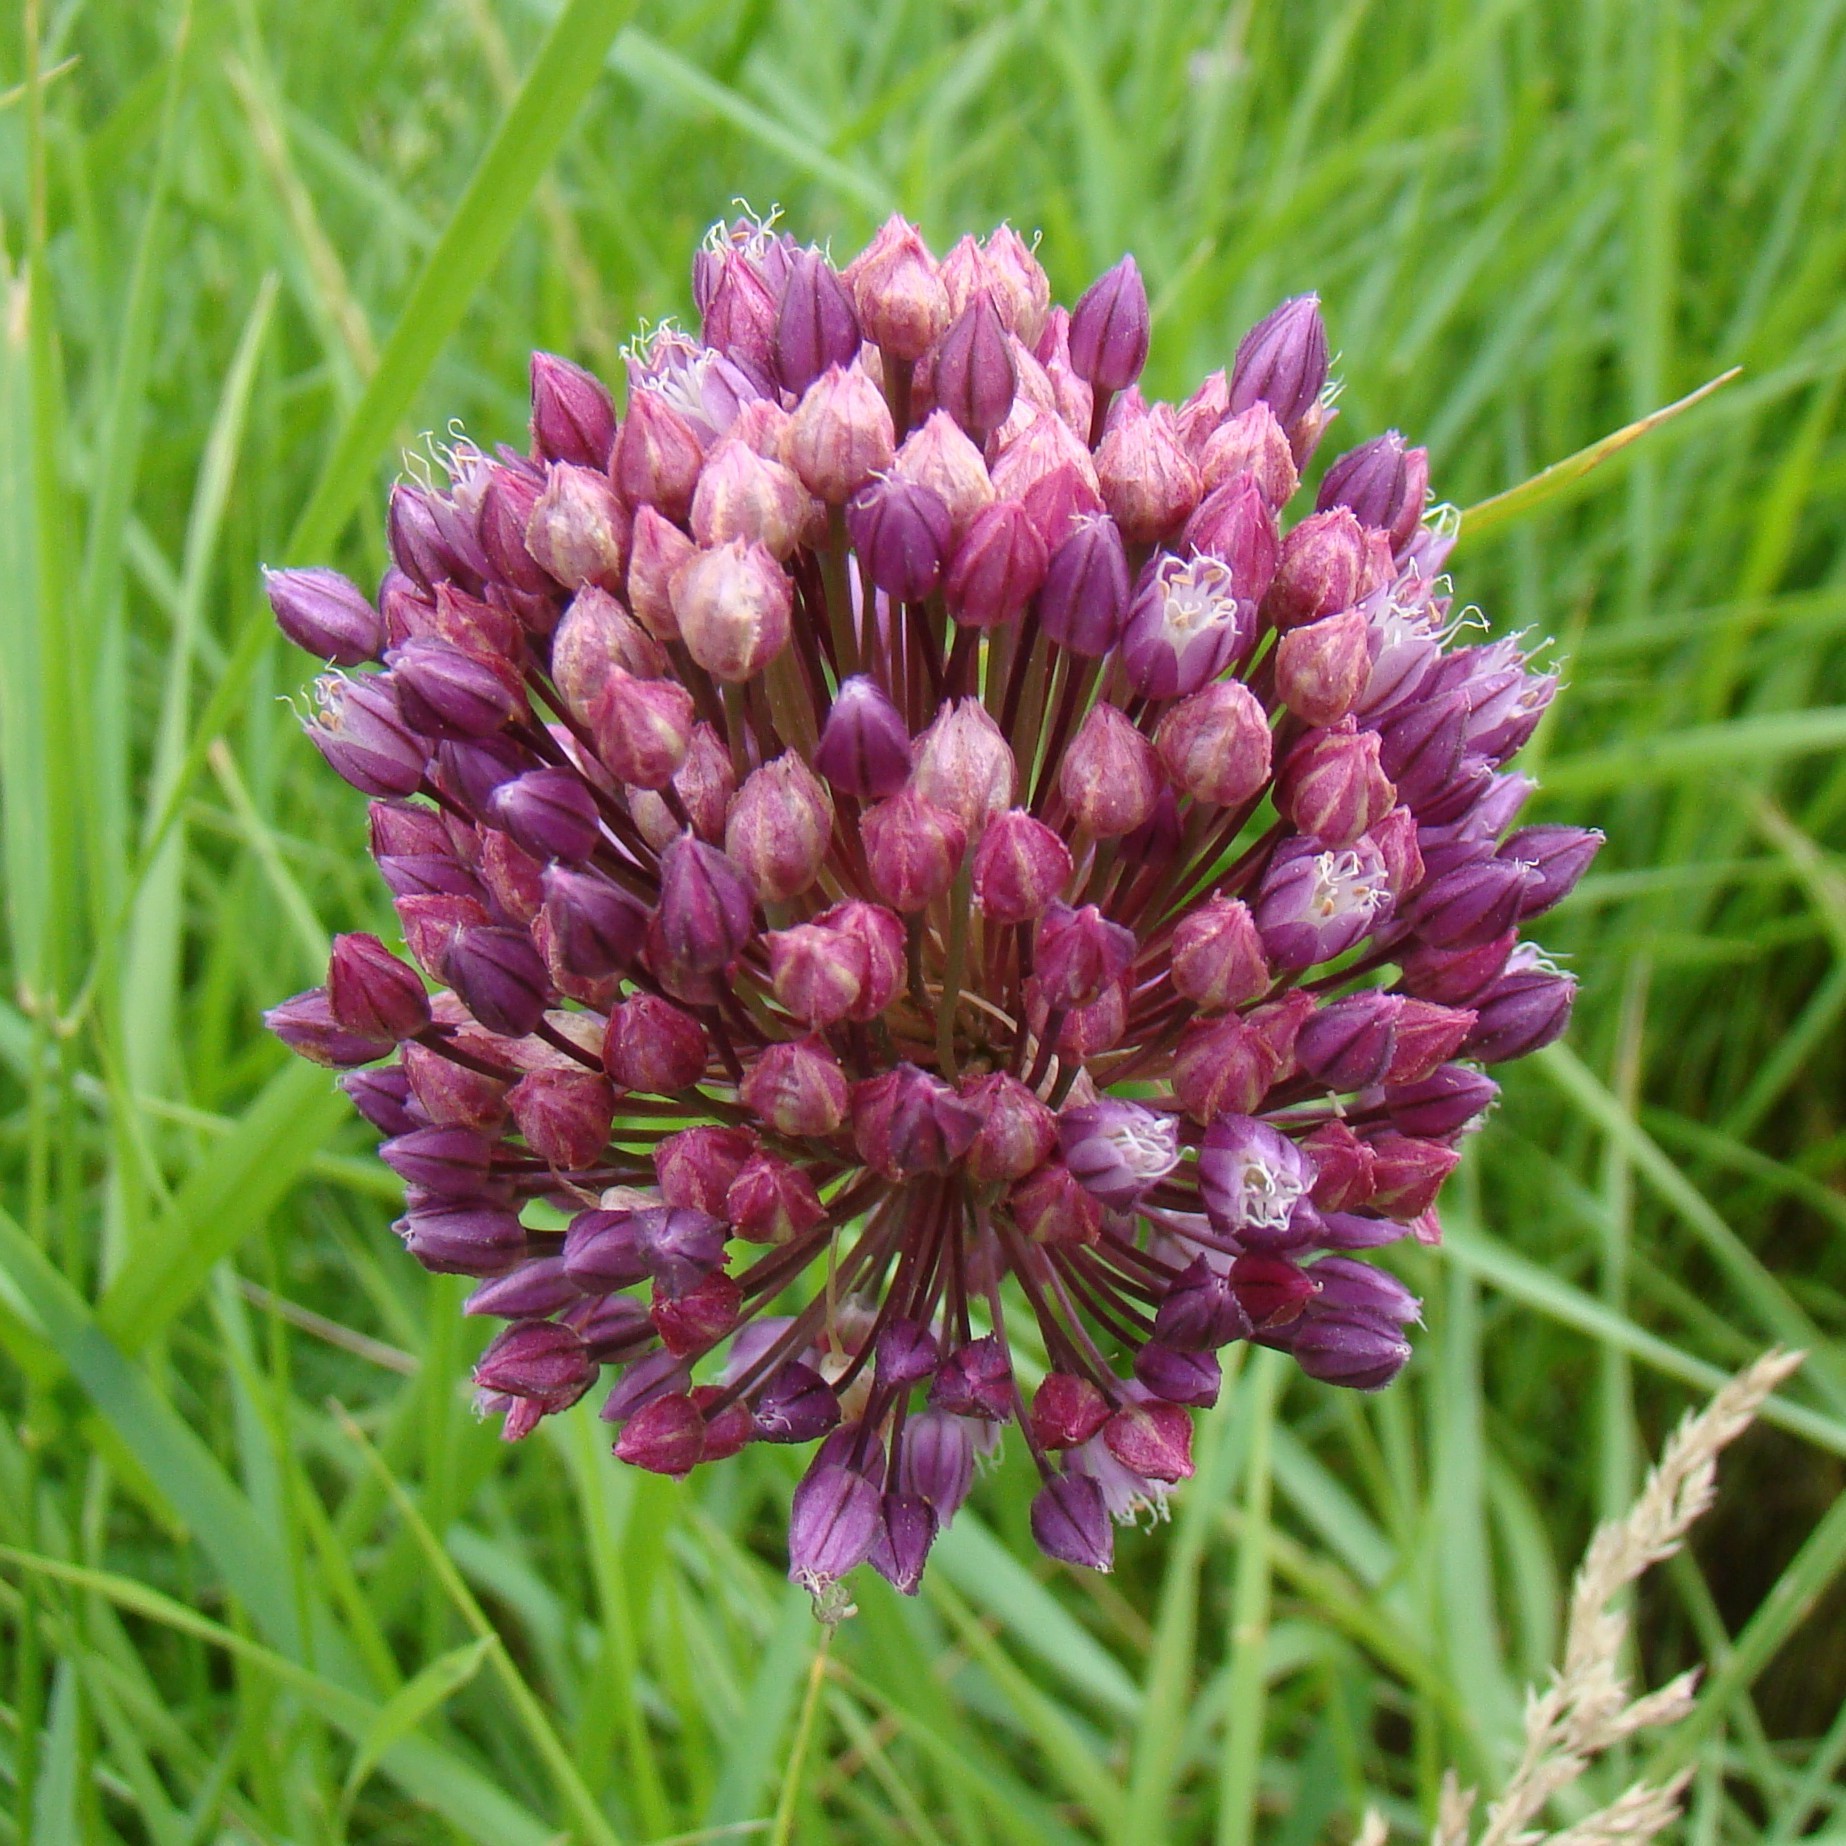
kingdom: Plantae
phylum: Tracheophyta
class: Liliopsida
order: Asparagales
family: Amaryllidaceae
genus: Allium
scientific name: Allium rotundum
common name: Sand leek
